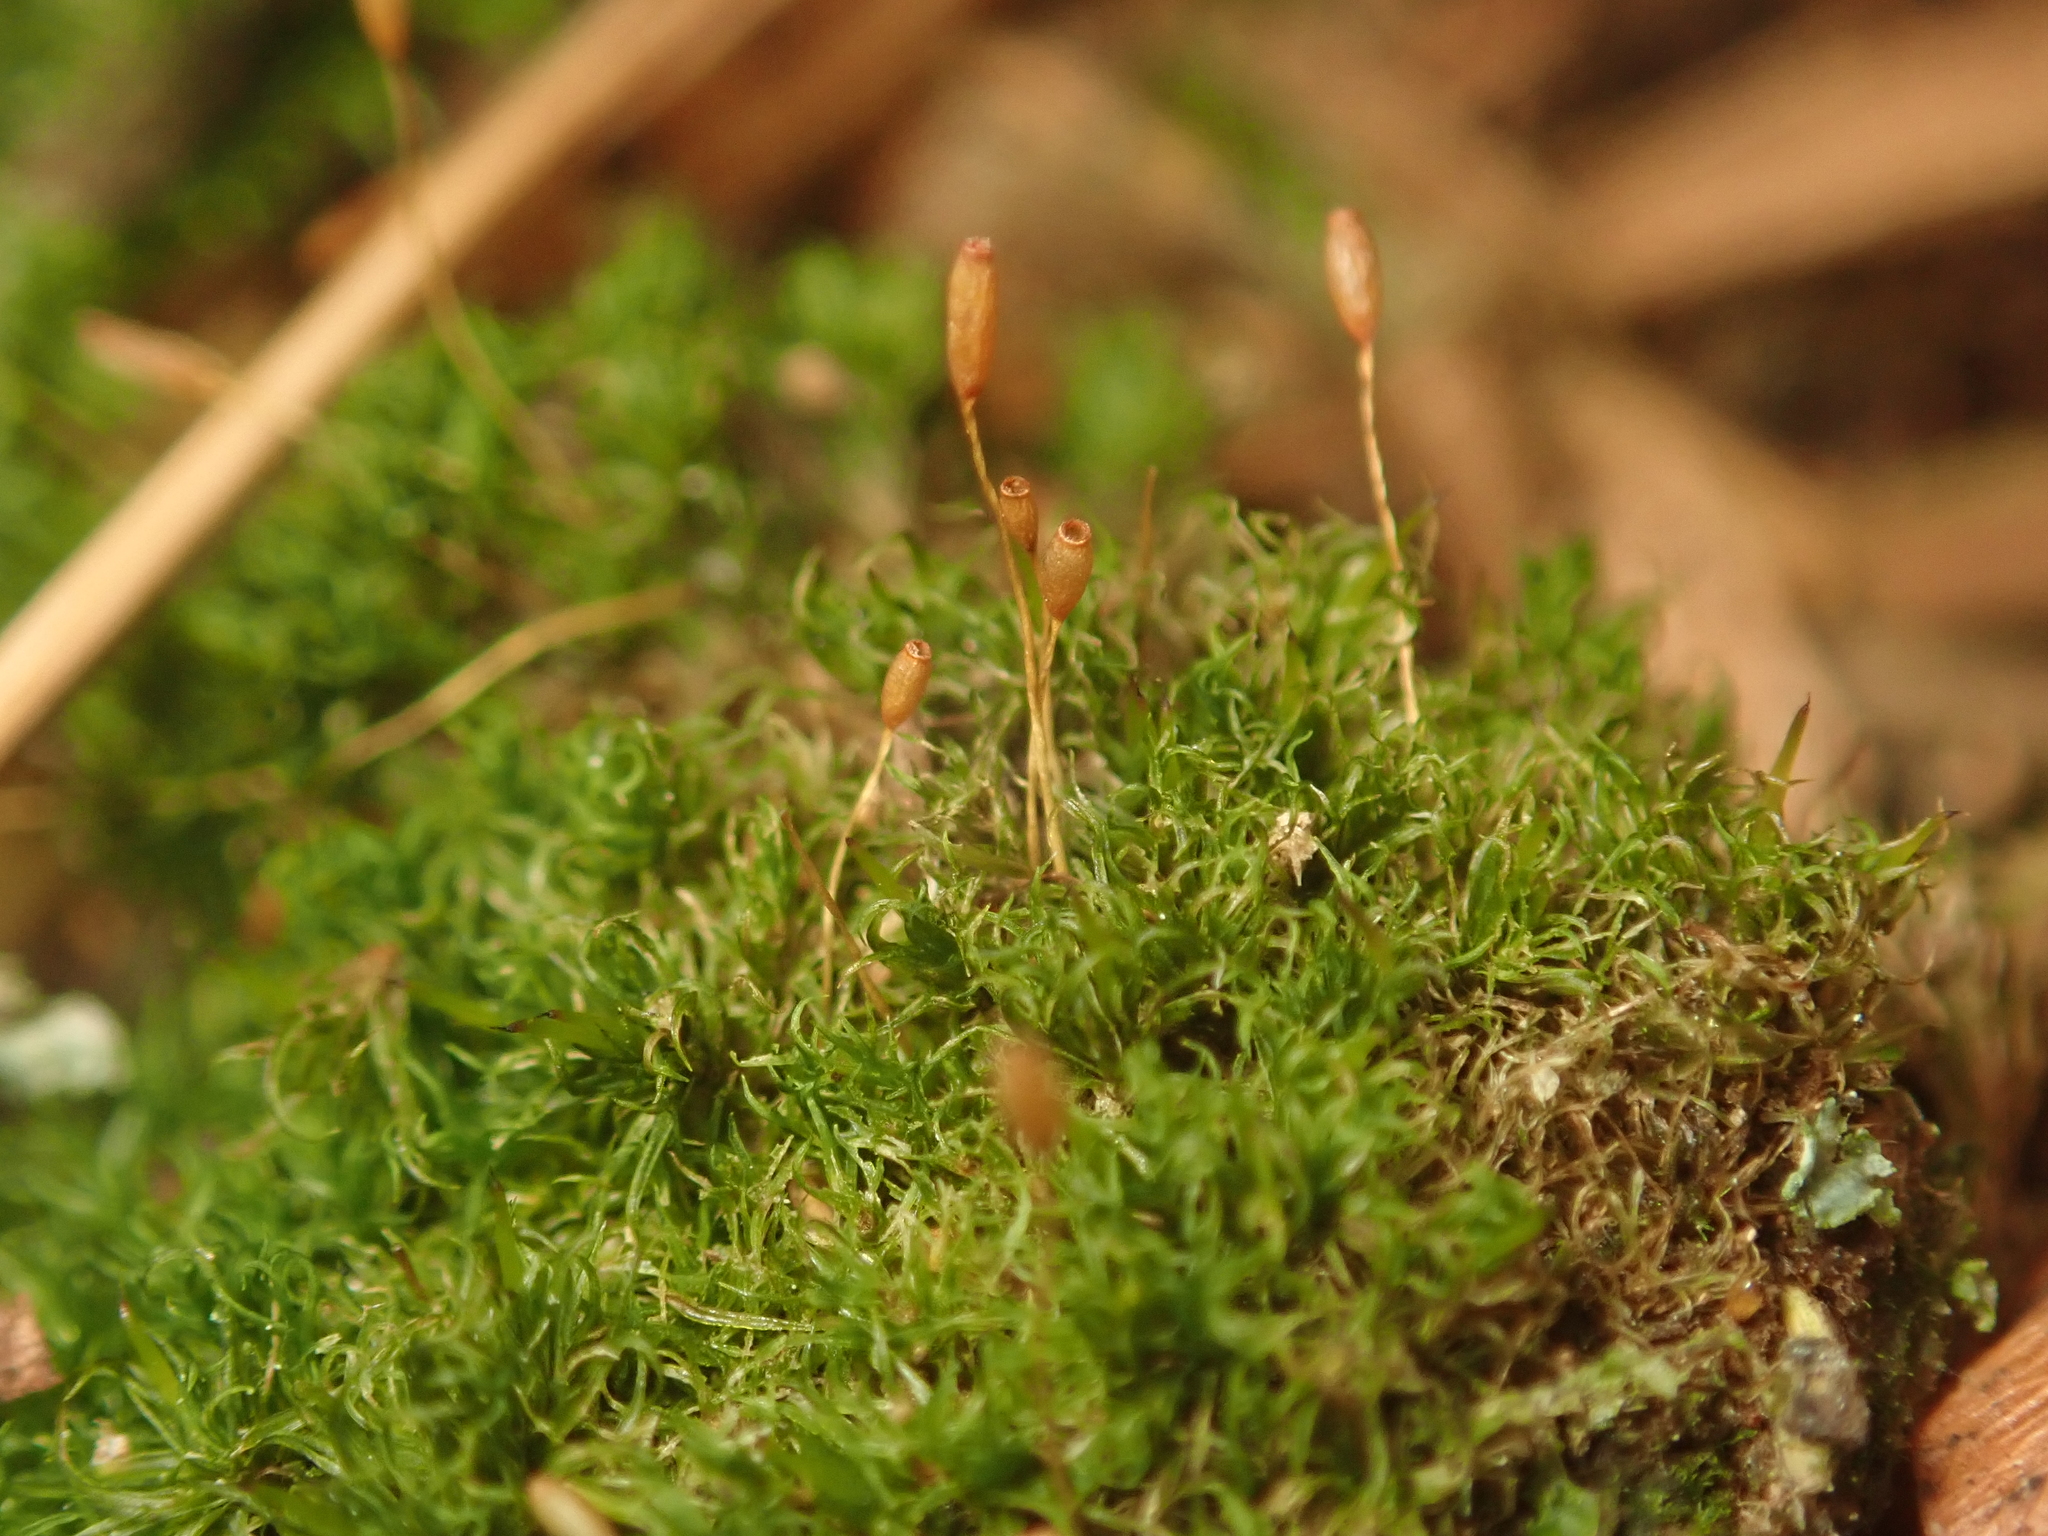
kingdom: Plantae
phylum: Bryophyta
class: Bryopsida
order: Dicranales
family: Rhabdoweisiaceae
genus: Dicranoweisia
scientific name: Dicranoweisia cirrata
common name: Common pincushion
